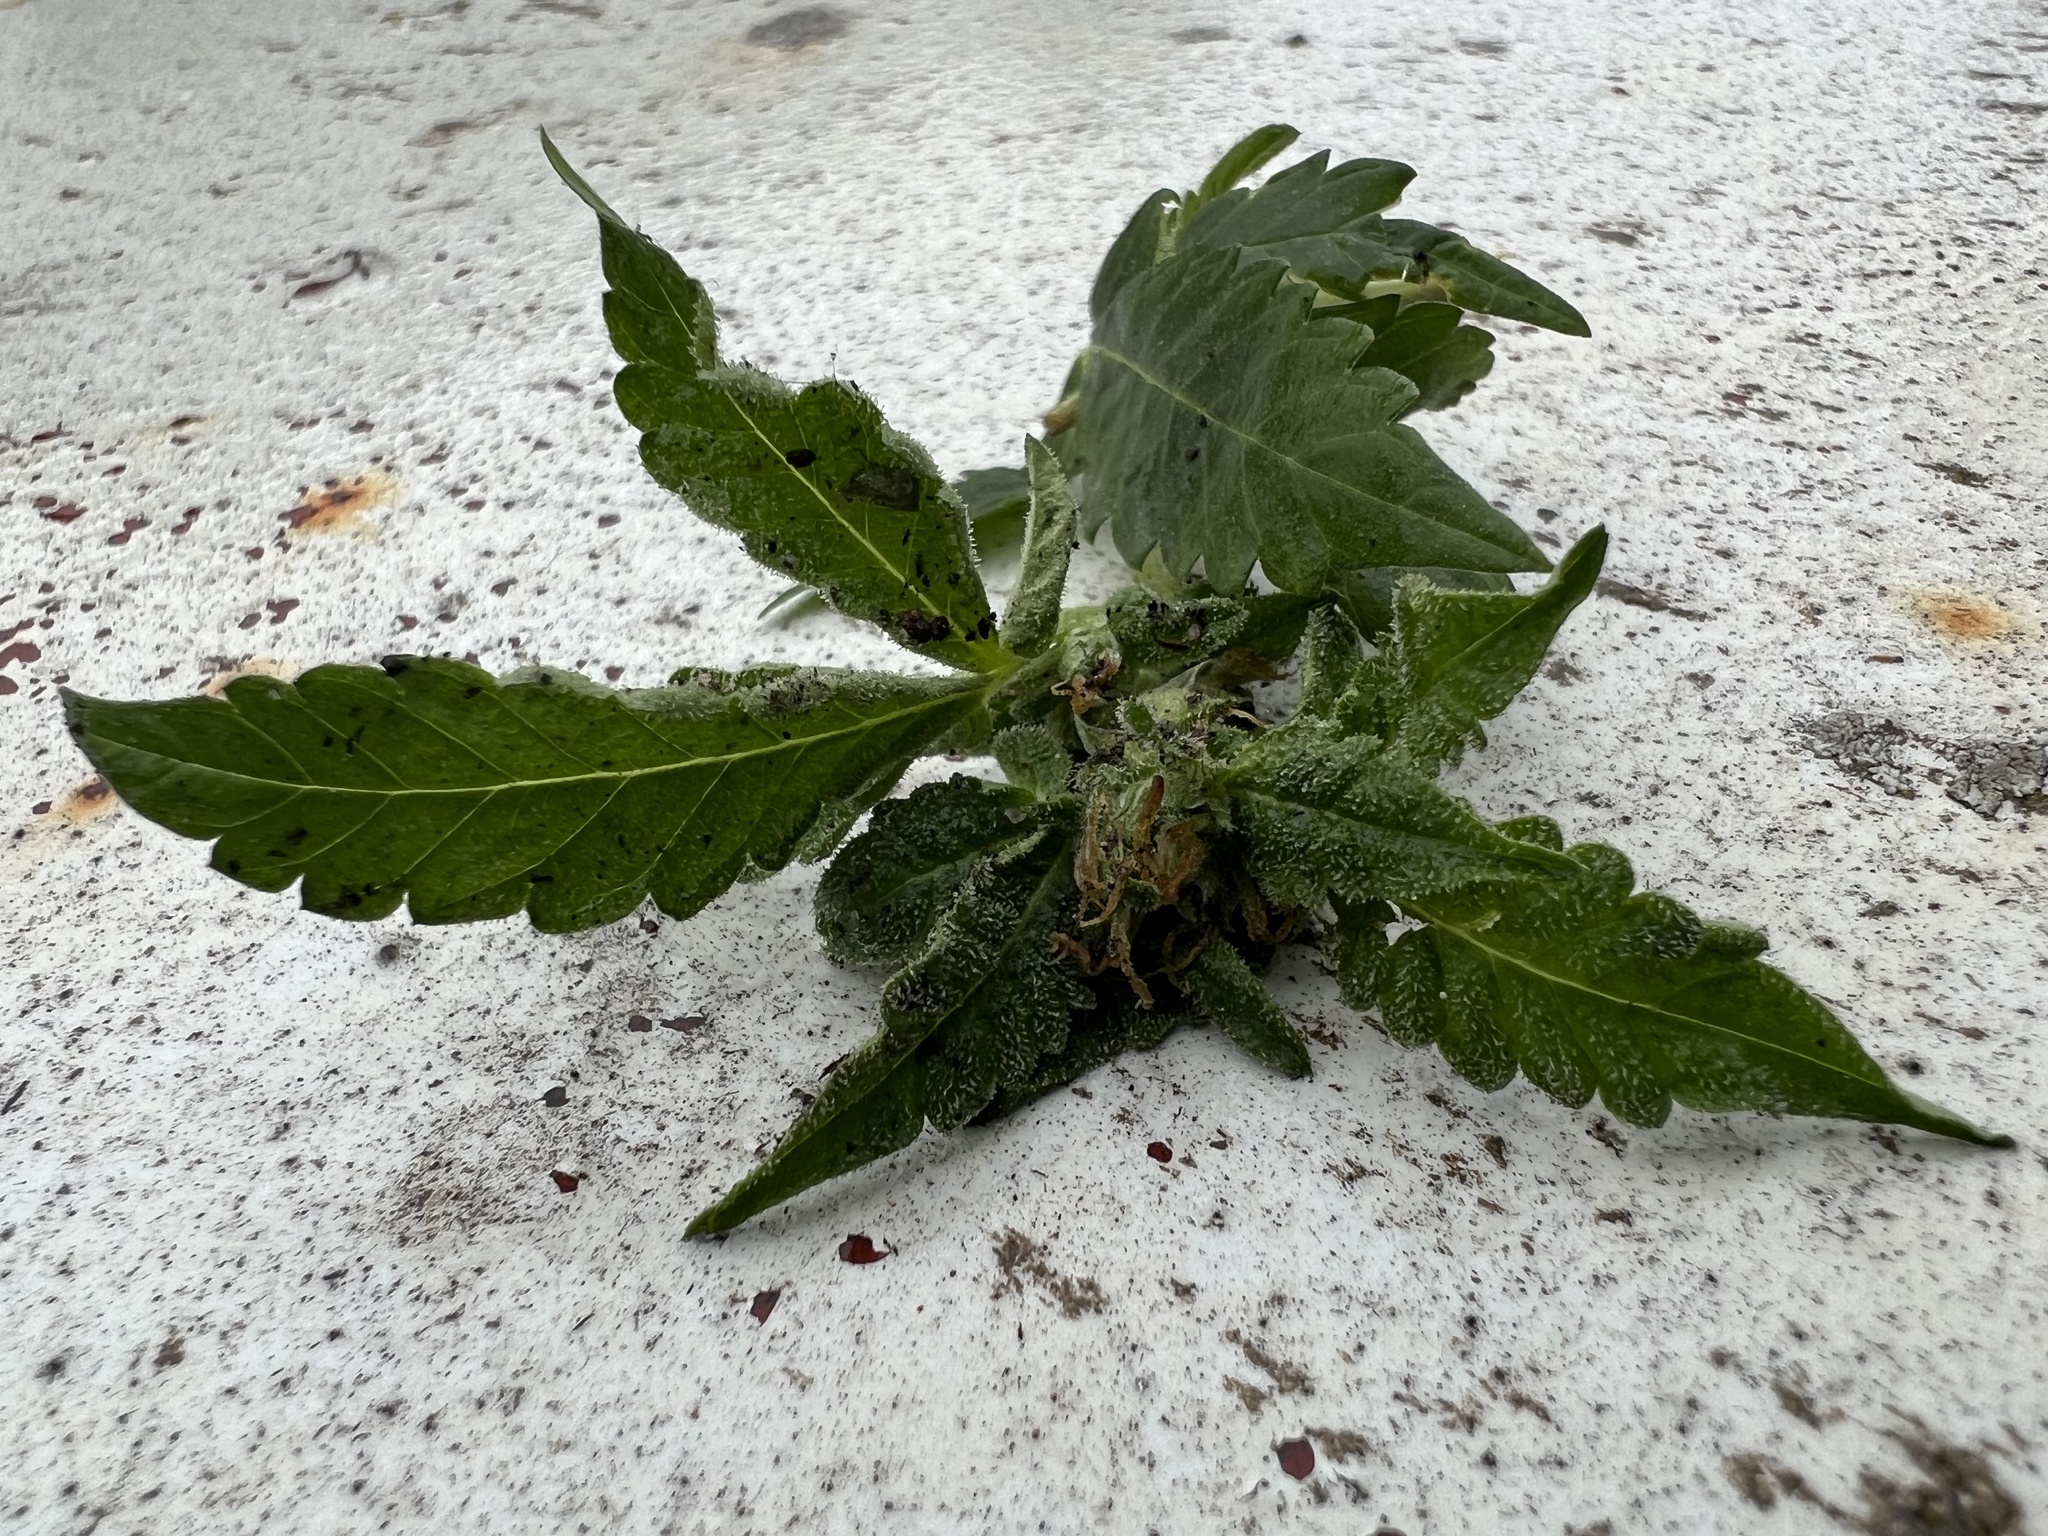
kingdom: Plantae
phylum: Tracheophyta
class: Magnoliopsida
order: Rosales
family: Cannabaceae
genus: Cannabis
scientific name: Cannabis sativa
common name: Hemp
